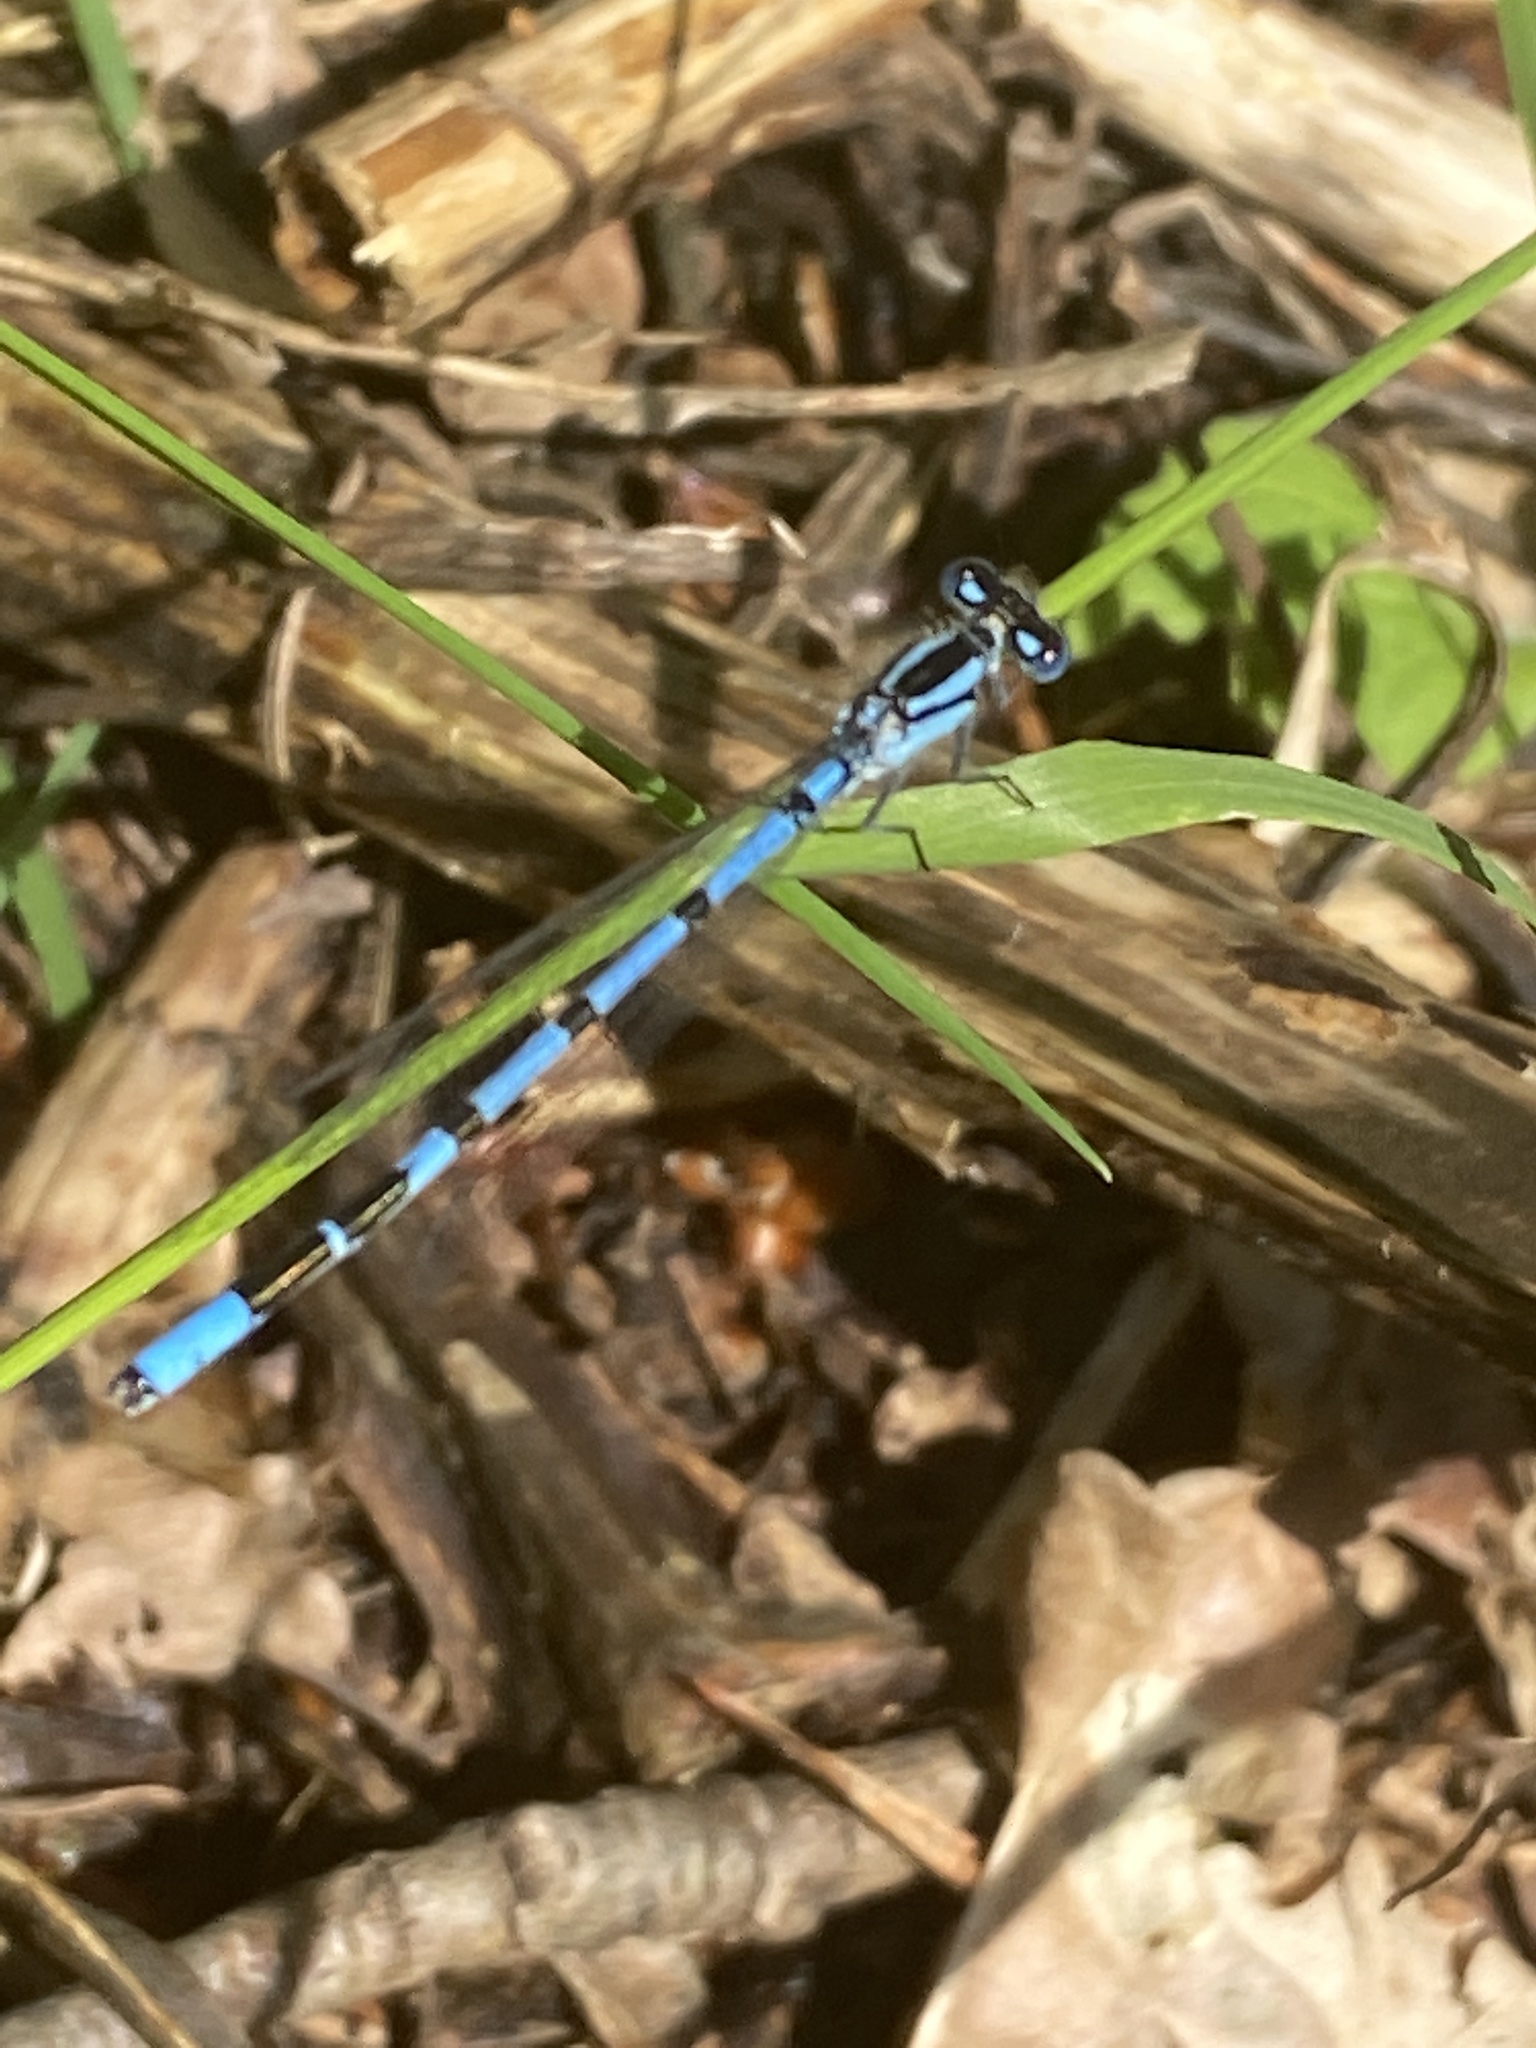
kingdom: Animalia
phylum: Arthropoda
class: Insecta
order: Odonata
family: Coenagrionidae
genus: Enallagma
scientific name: Enallagma cyathigerum
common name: Common blue damselfly
